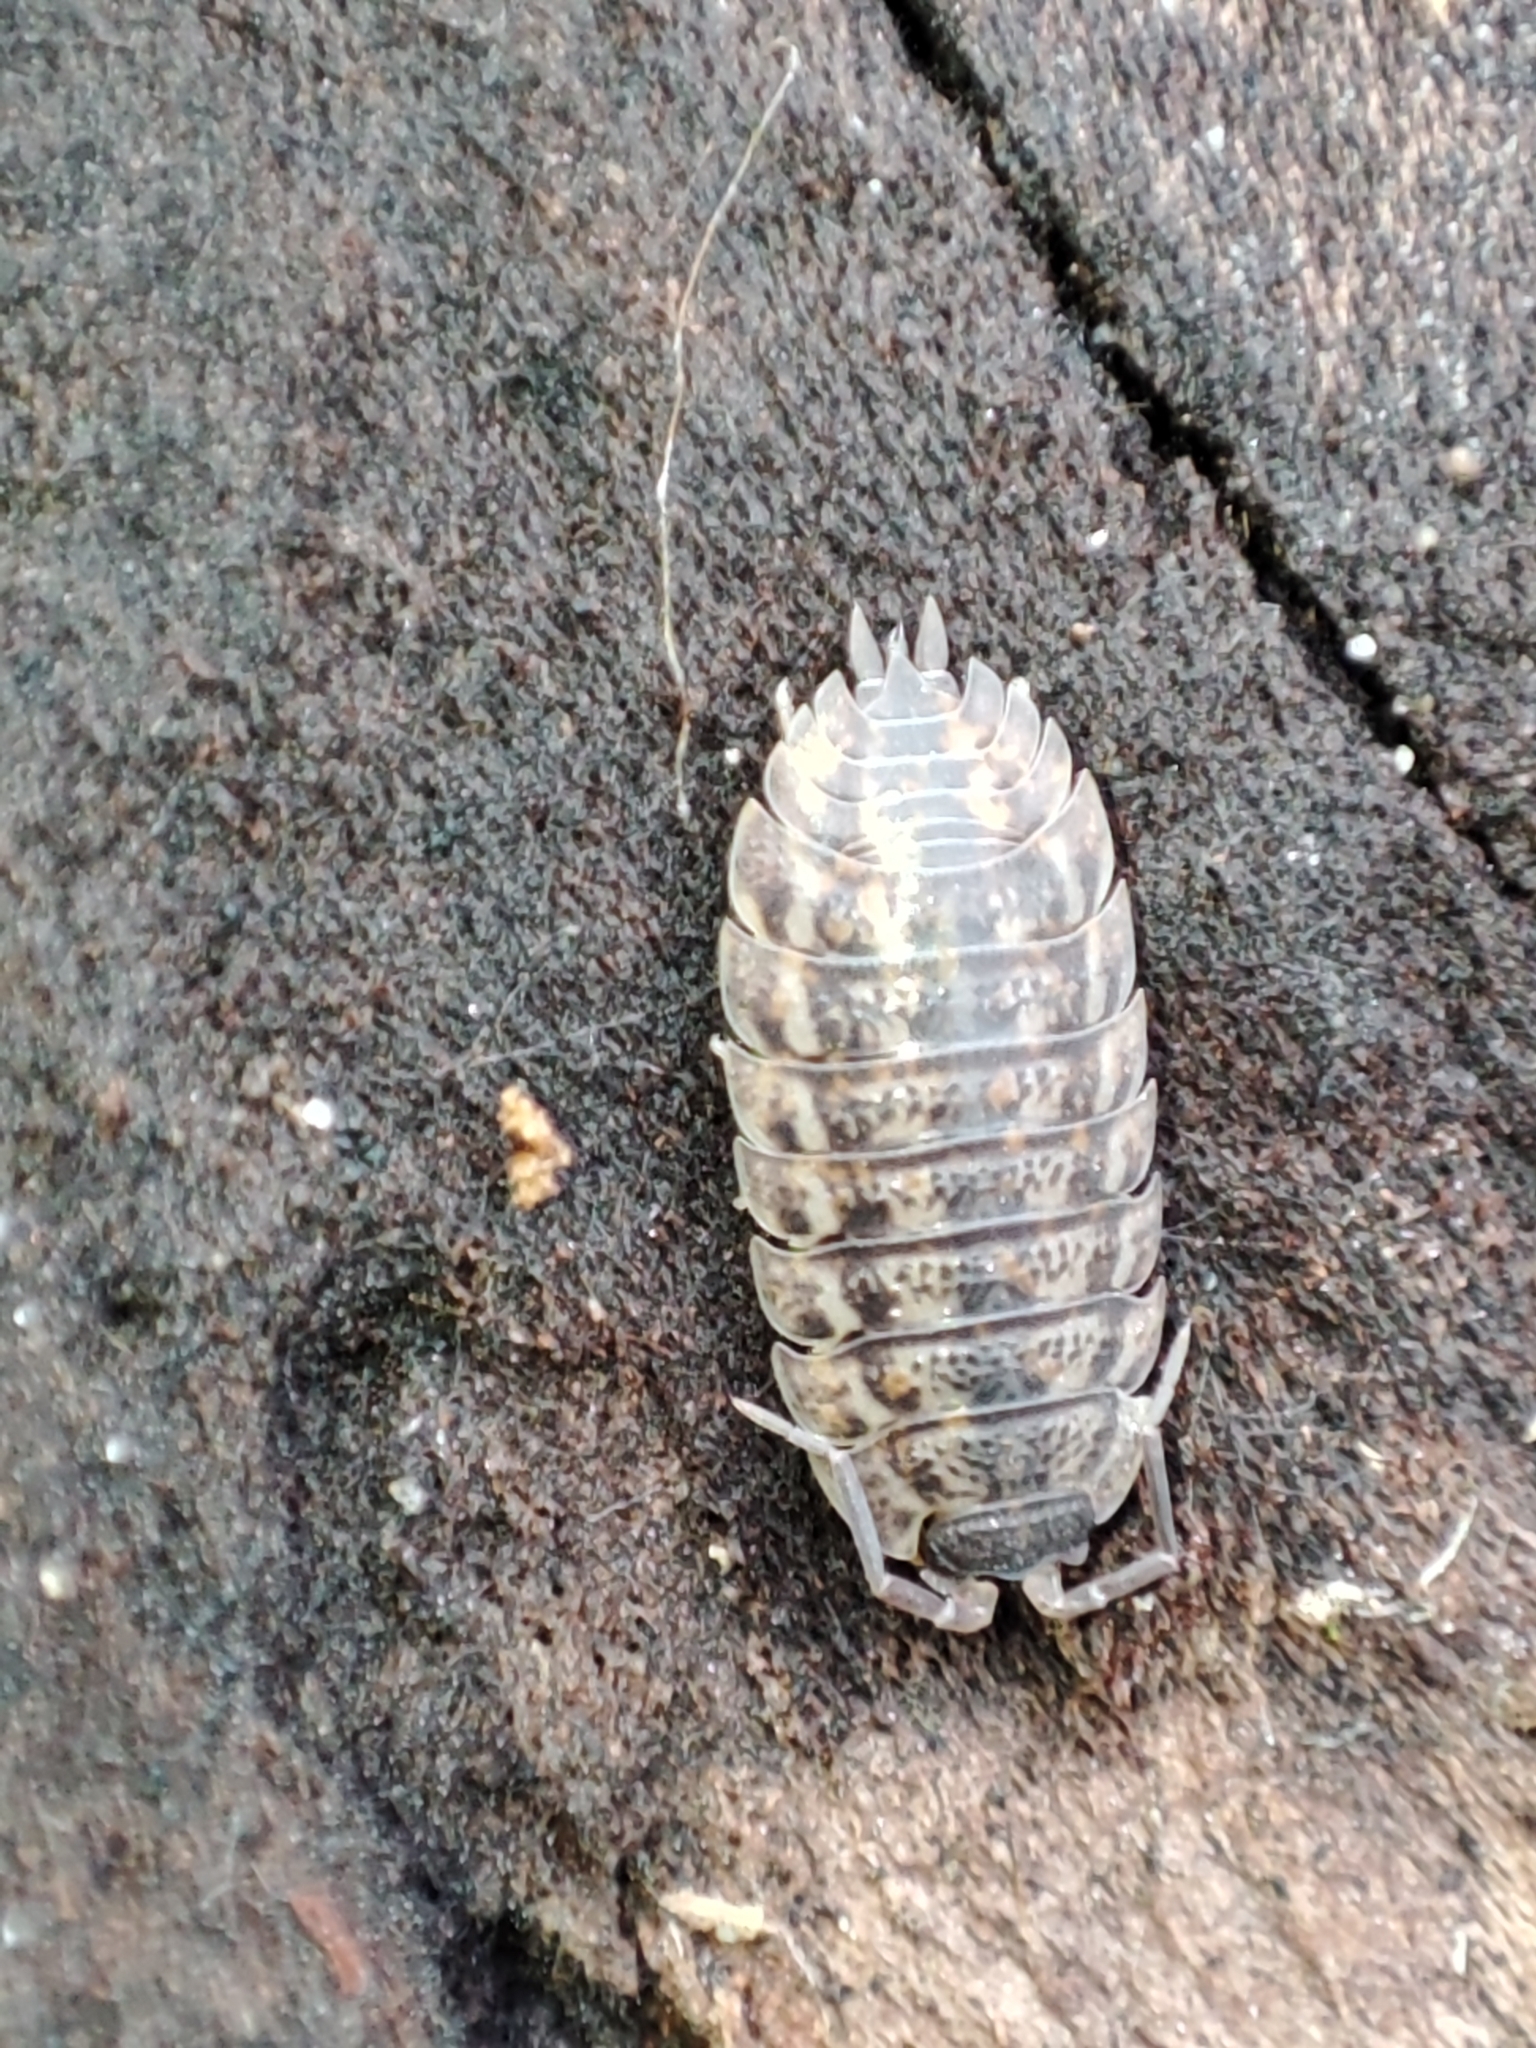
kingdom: Animalia
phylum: Arthropoda
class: Malacostraca
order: Isopoda
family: Trachelipodidae
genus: Trachelipus
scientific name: Trachelipus rathkii
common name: Isopod
